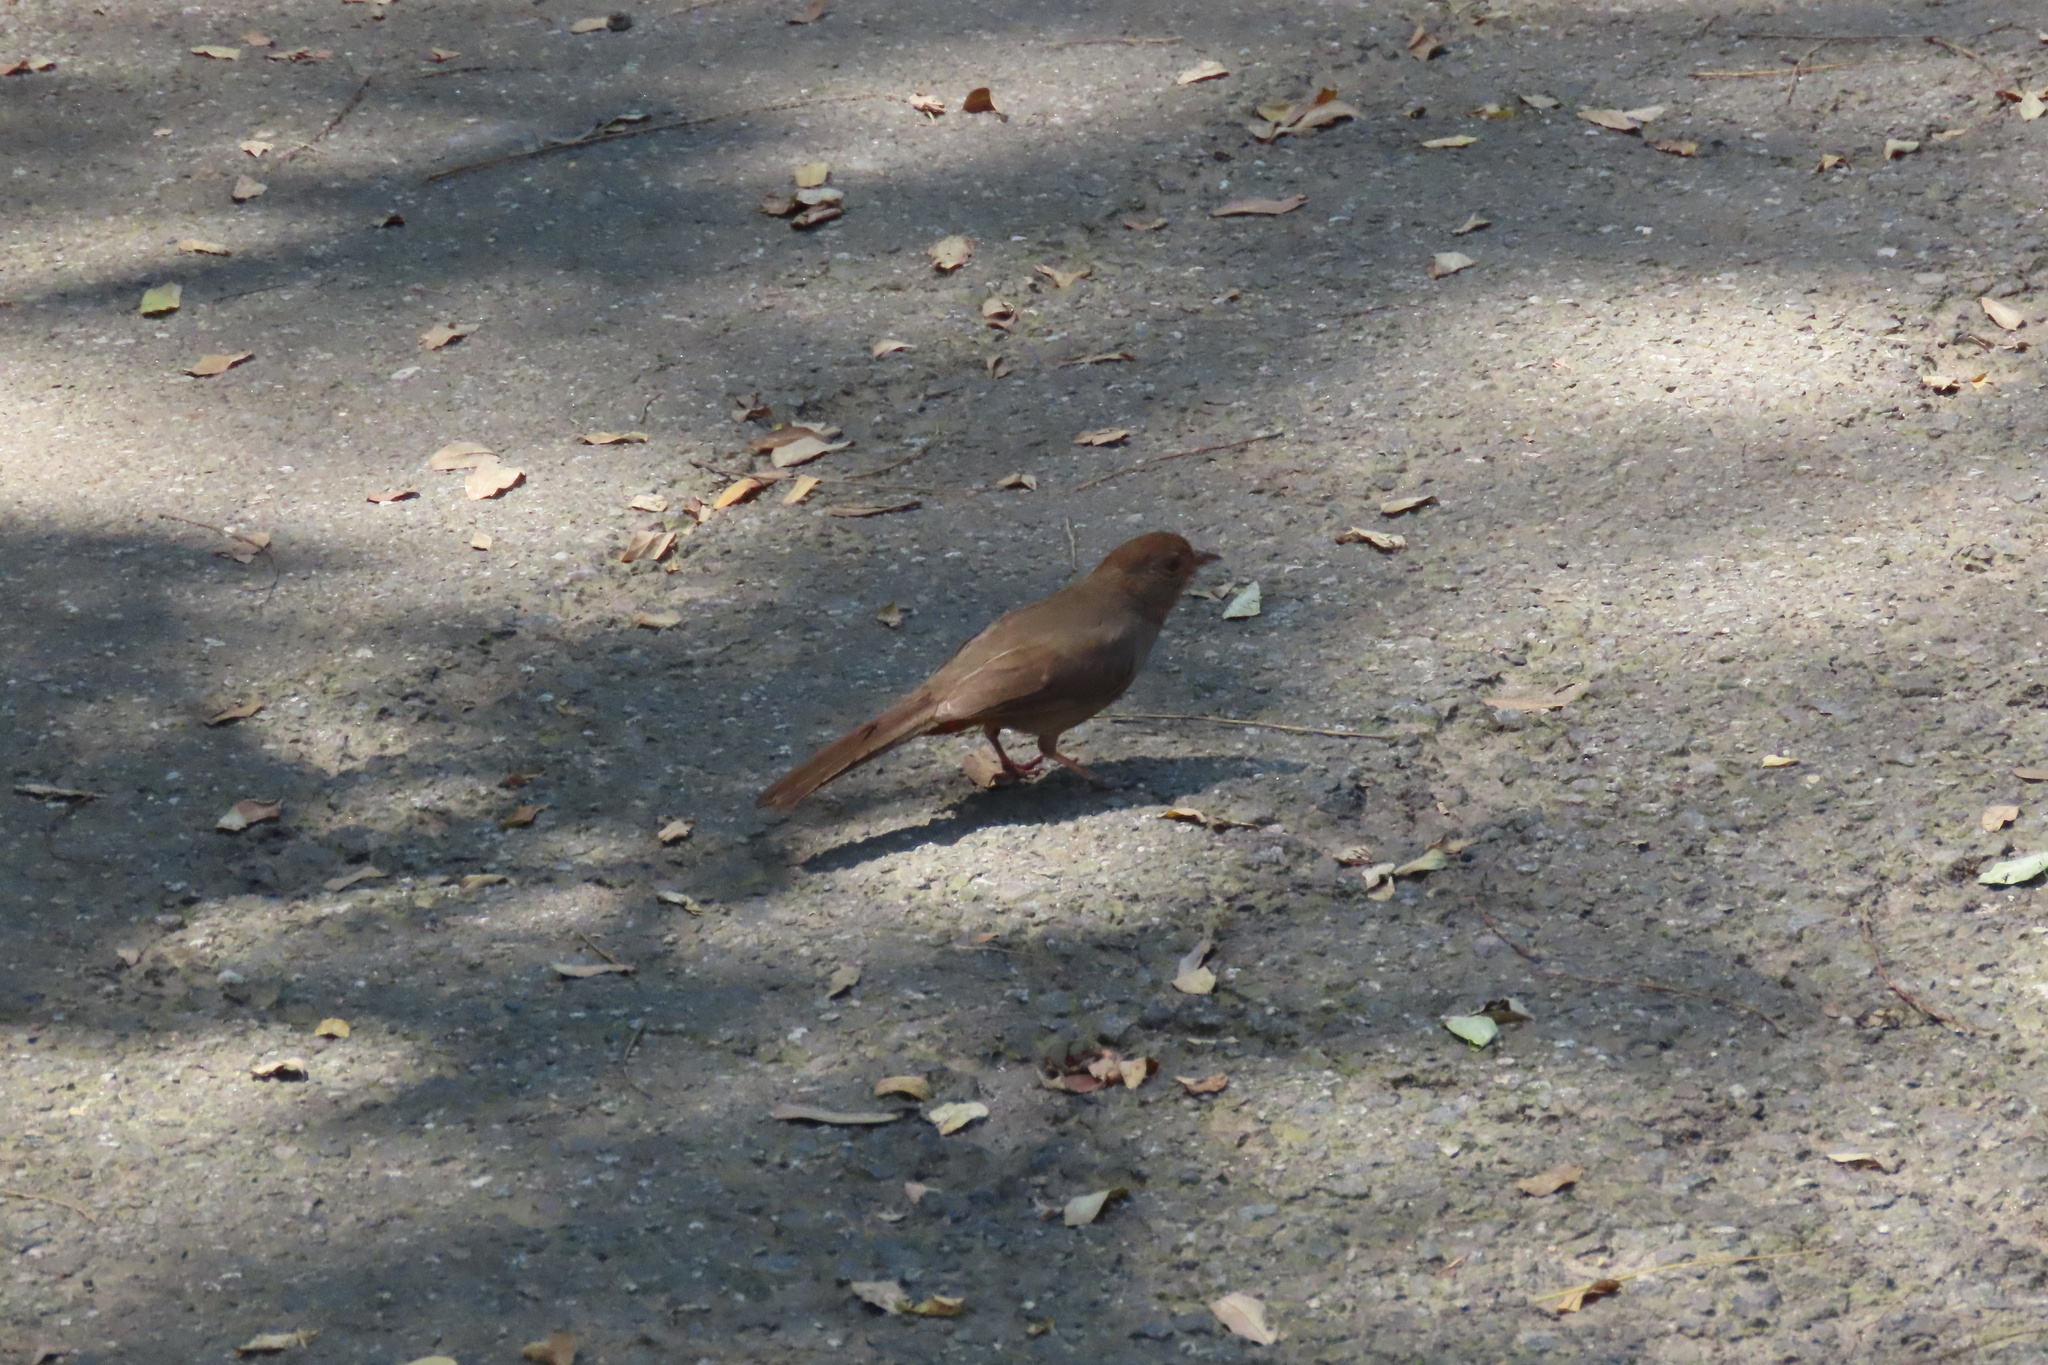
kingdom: Animalia
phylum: Chordata
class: Aves
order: Passeriformes
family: Passerellidae
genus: Melozone
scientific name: Melozone crissalis
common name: California towhee
